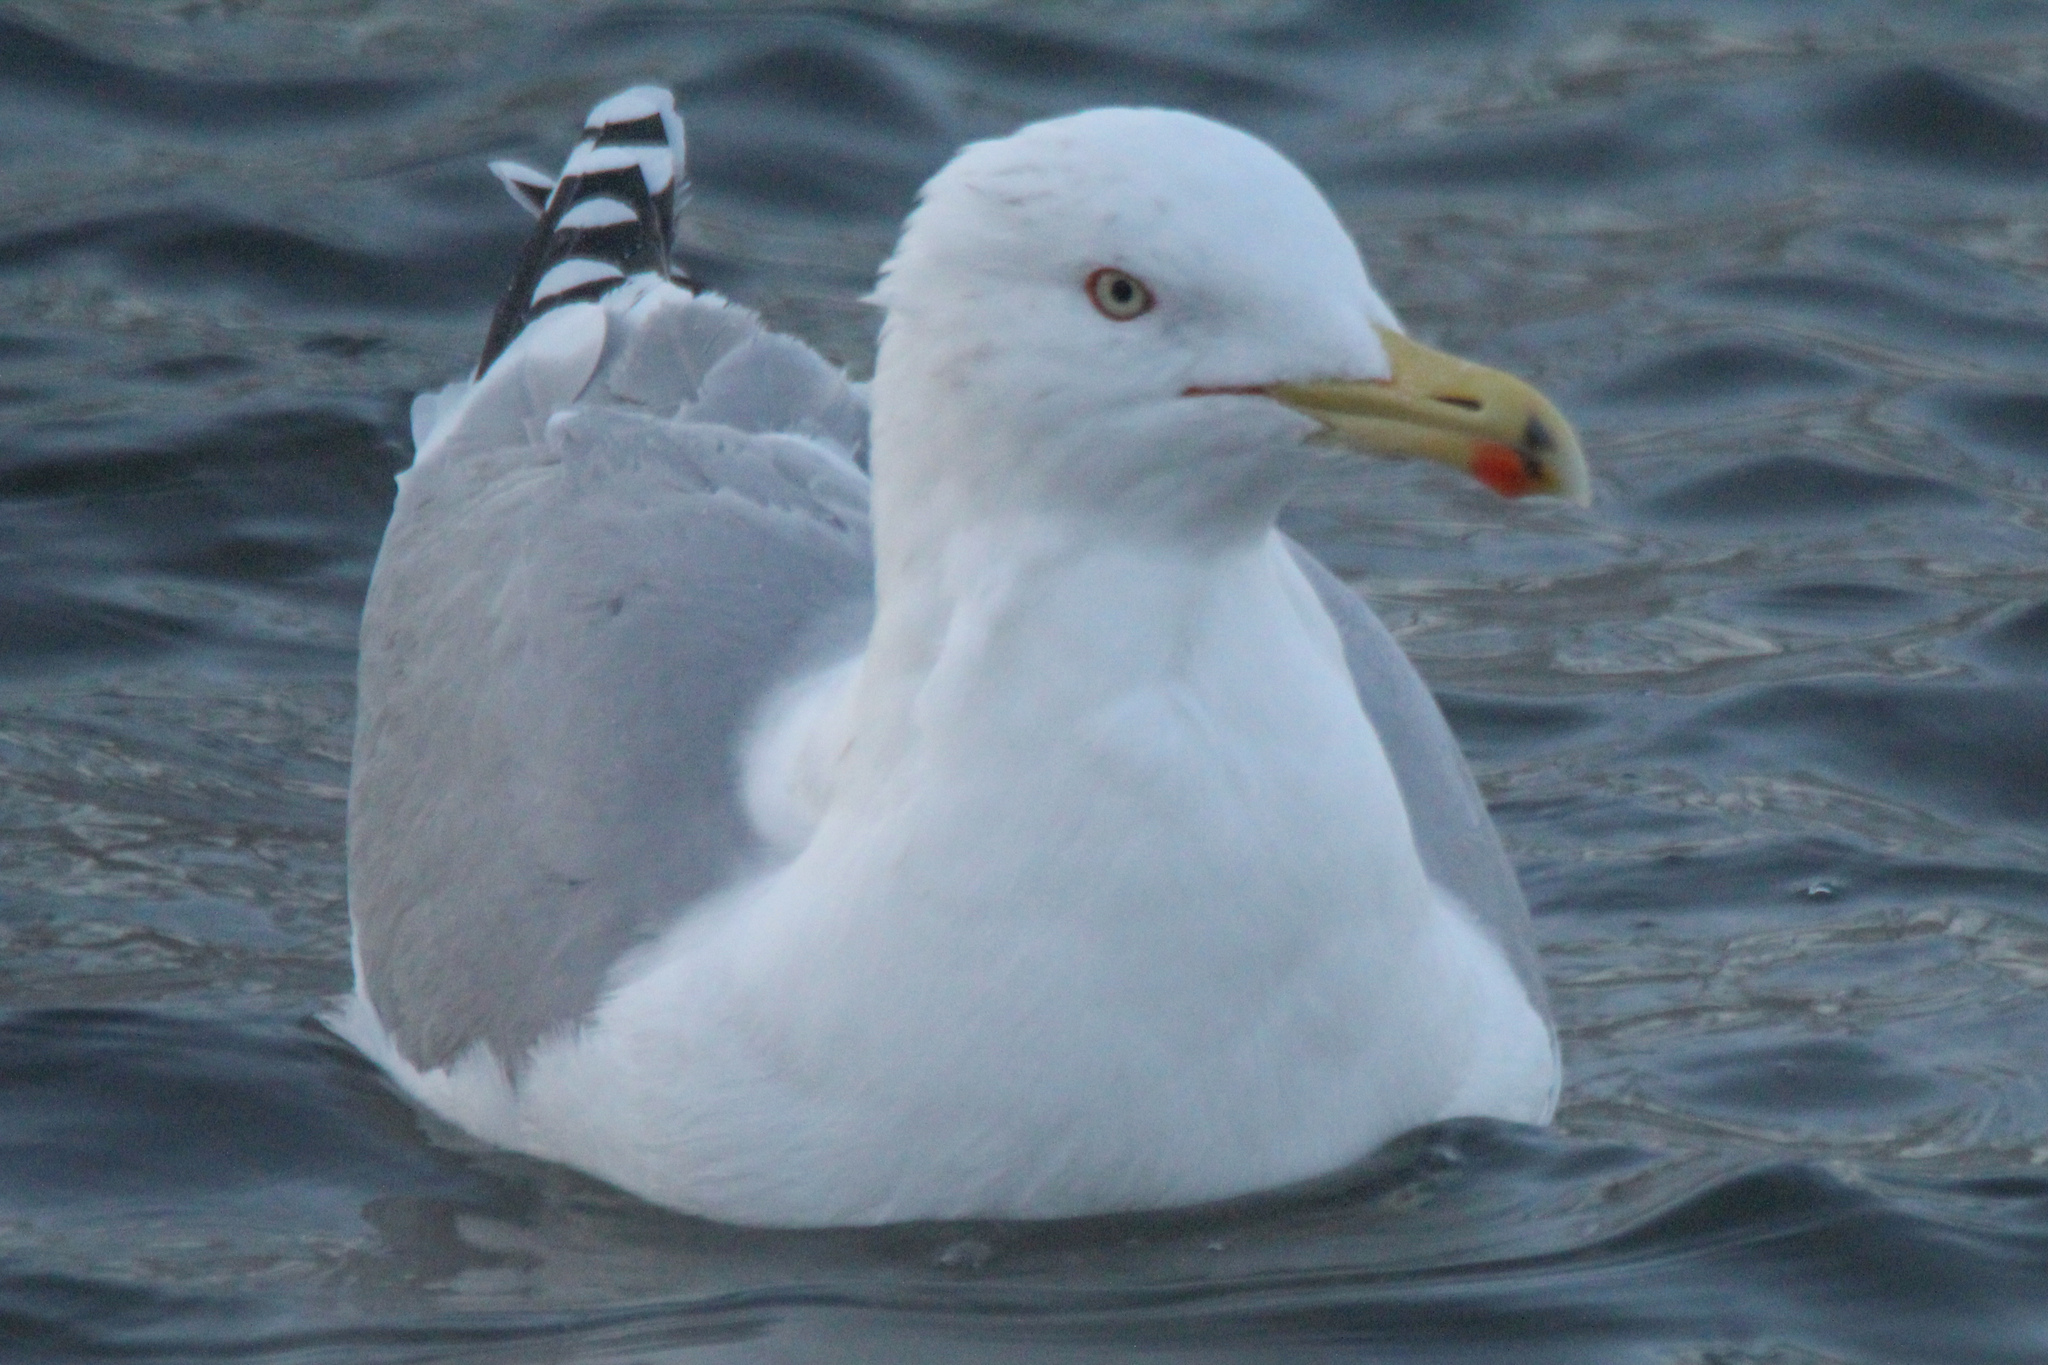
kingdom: Animalia
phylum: Chordata
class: Aves
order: Charadriiformes
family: Laridae
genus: Larus
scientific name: Larus argentatus
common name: Herring gull
